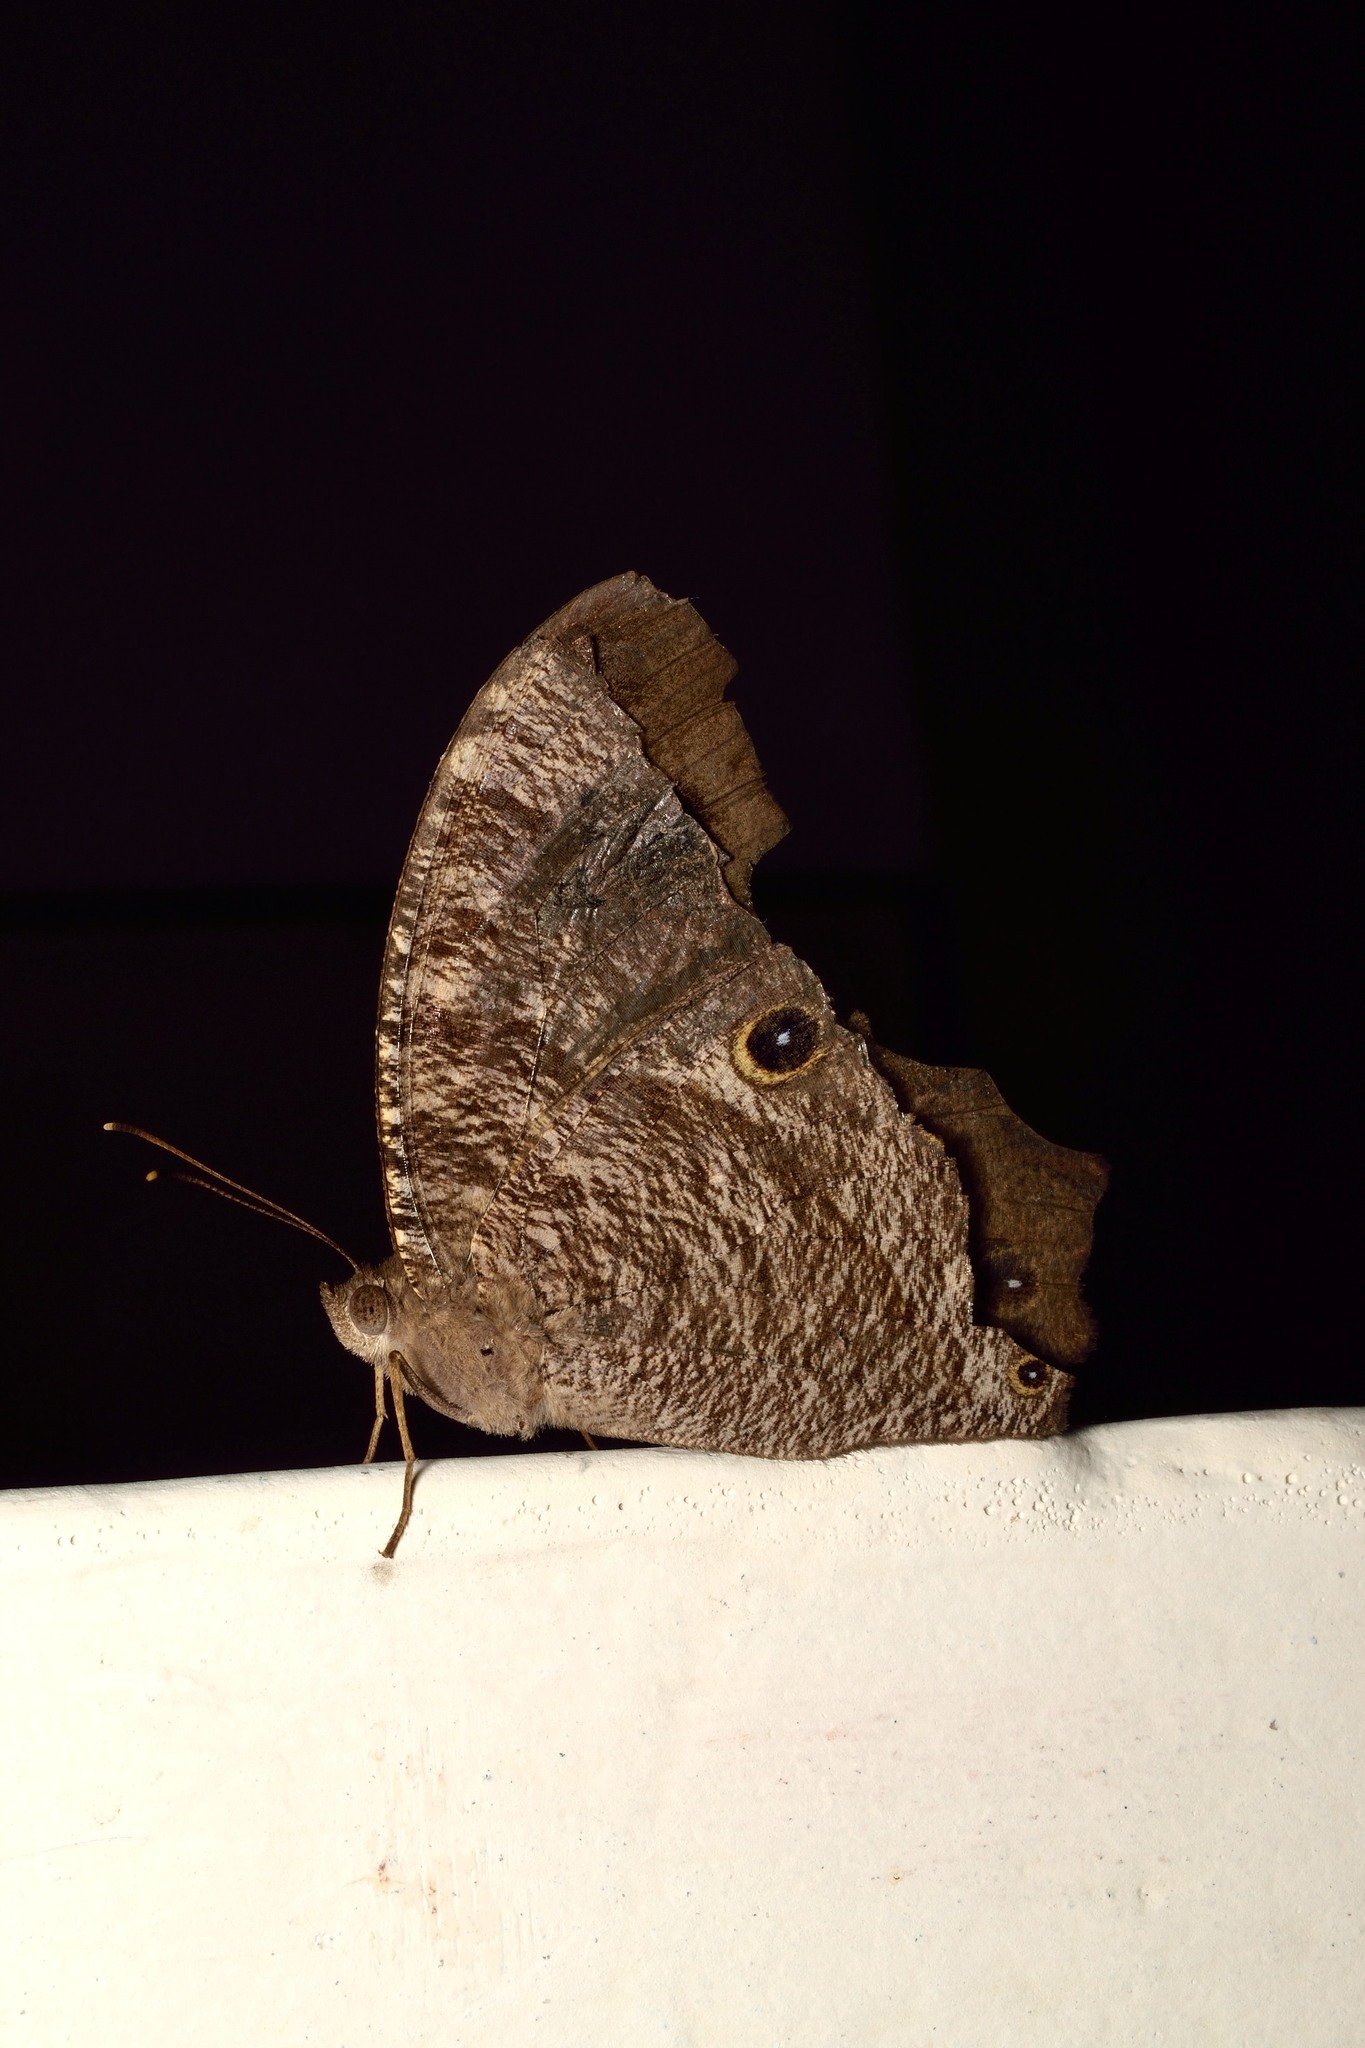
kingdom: Animalia
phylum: Arthropoda
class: Insecta
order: Lepidoptera
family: Nymphalidae
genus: Melanitis
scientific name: Melanitis leda
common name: Twilight brown
